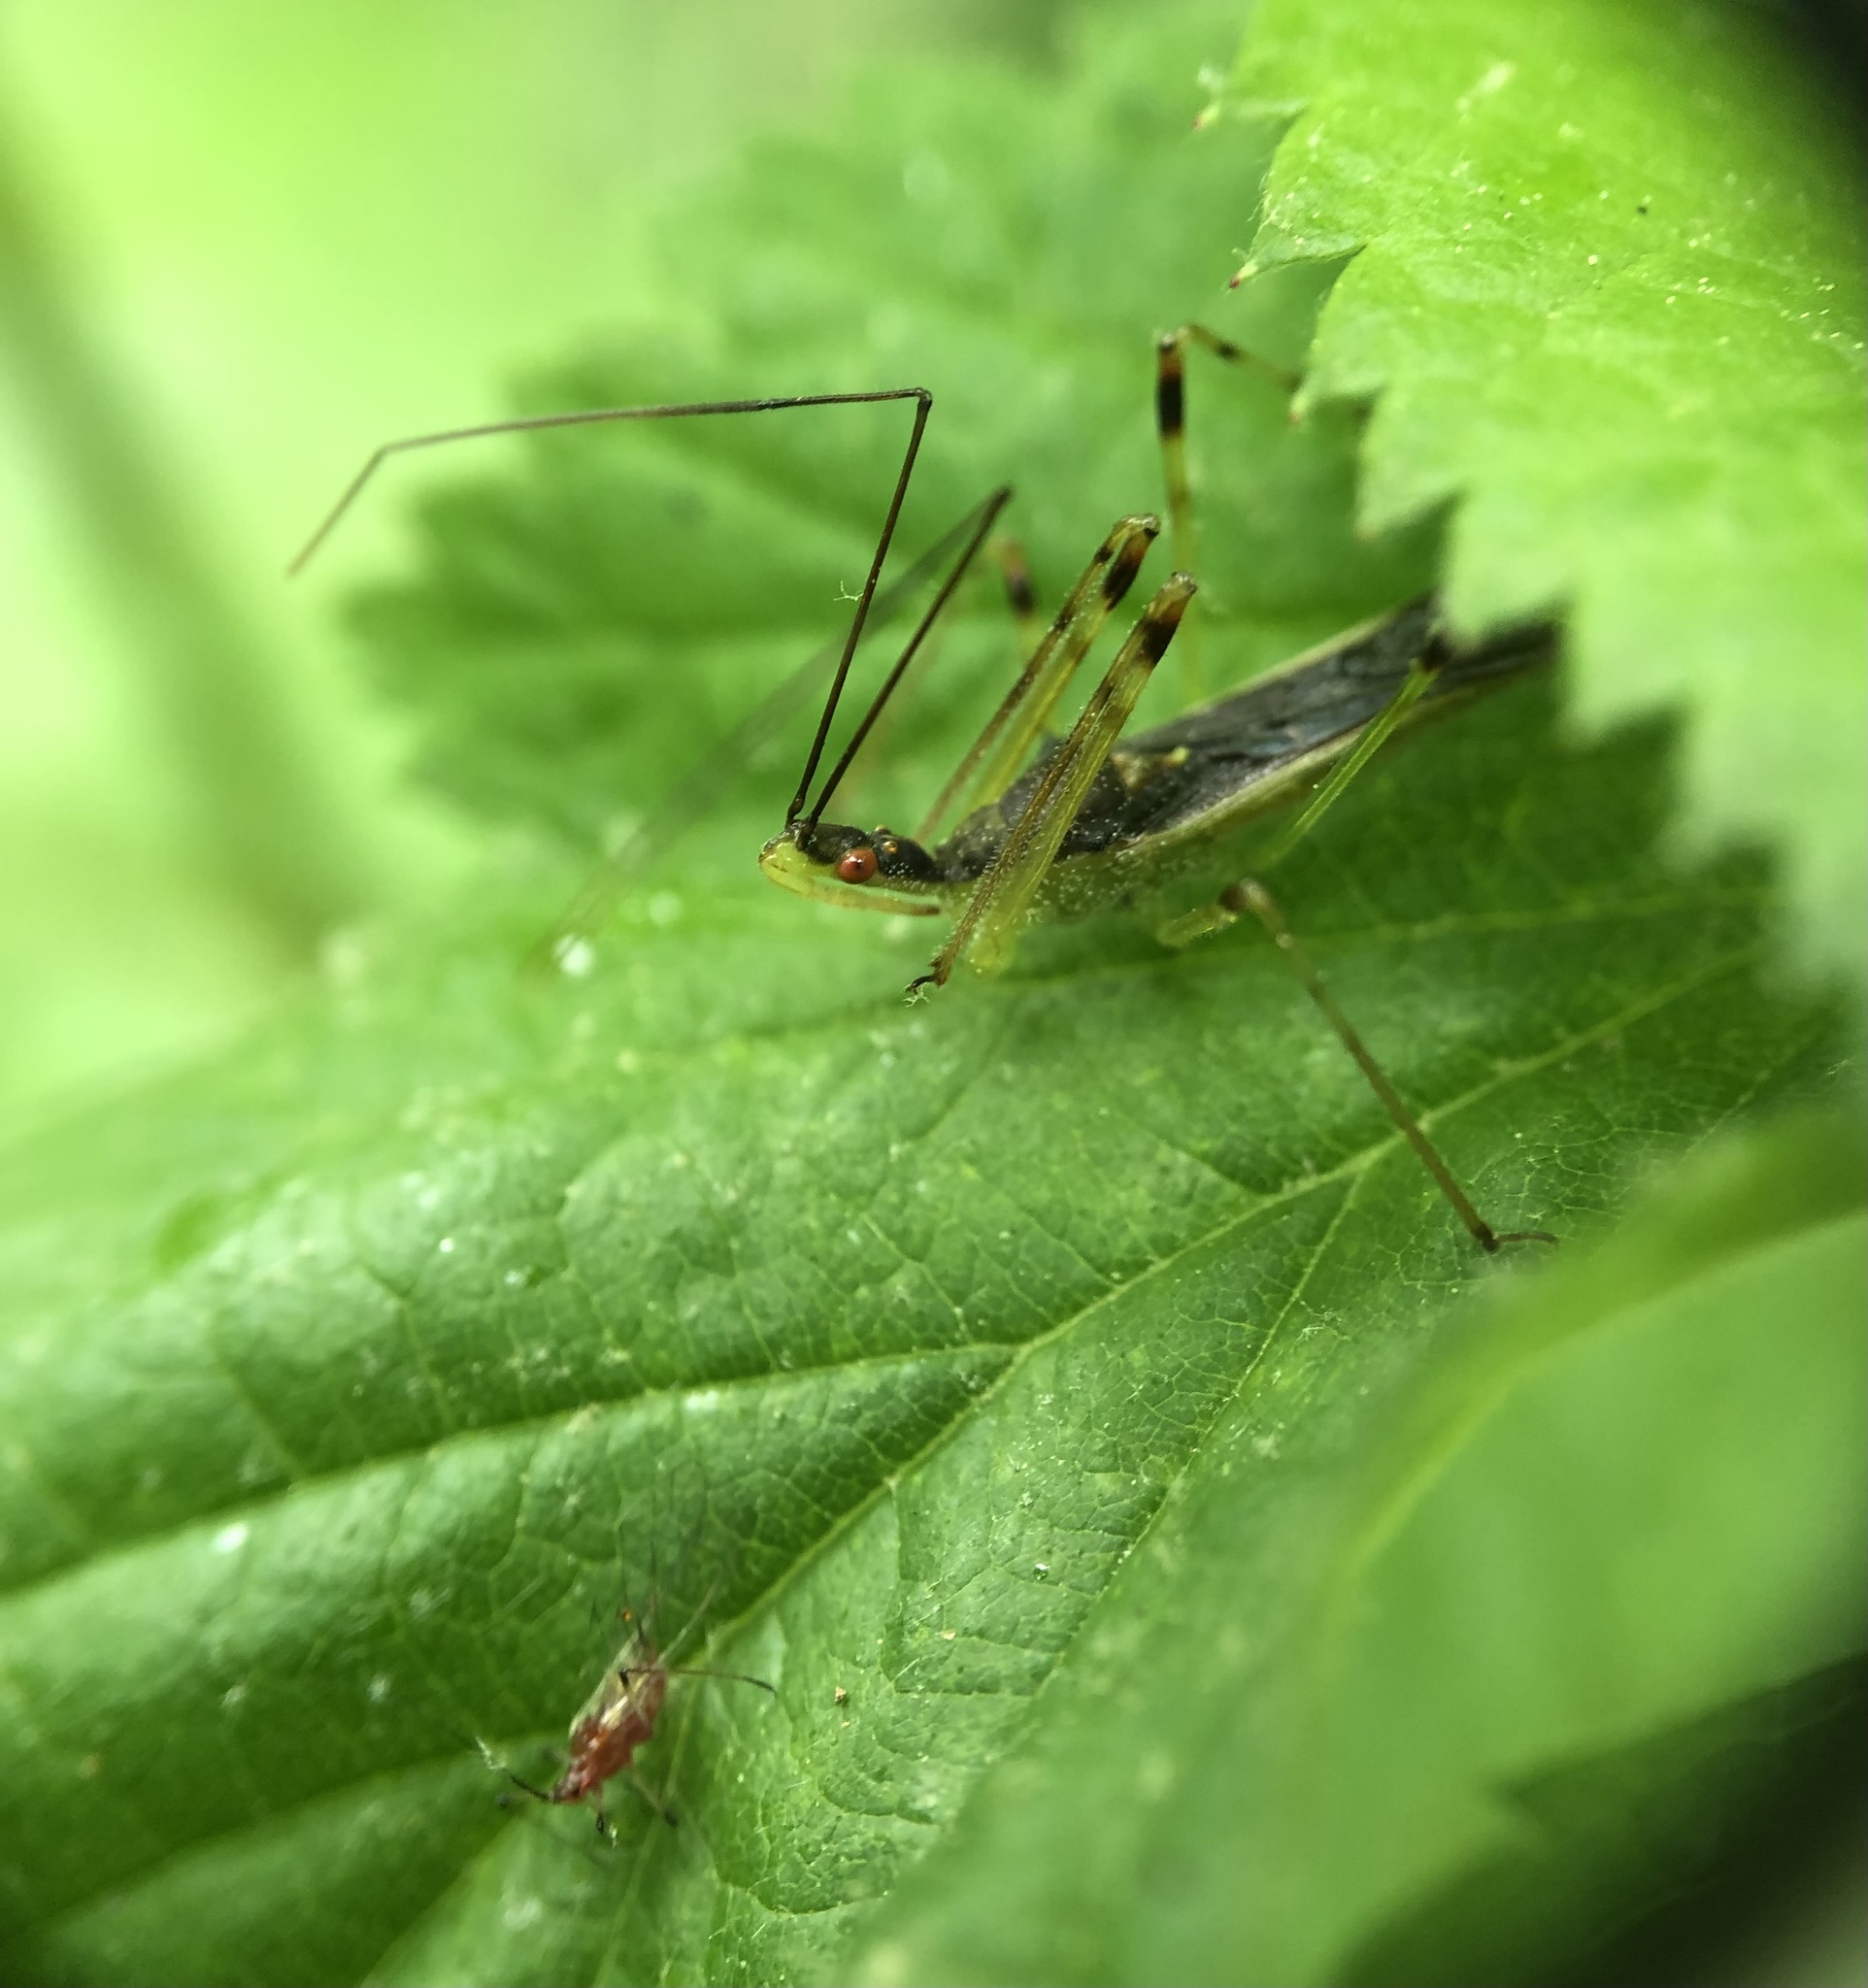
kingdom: Animalia
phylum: Arthropoda
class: Insecta
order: Hemiptera
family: Reduviidae
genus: Zelus
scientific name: Zelus luridus
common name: Pale green assassin bug
